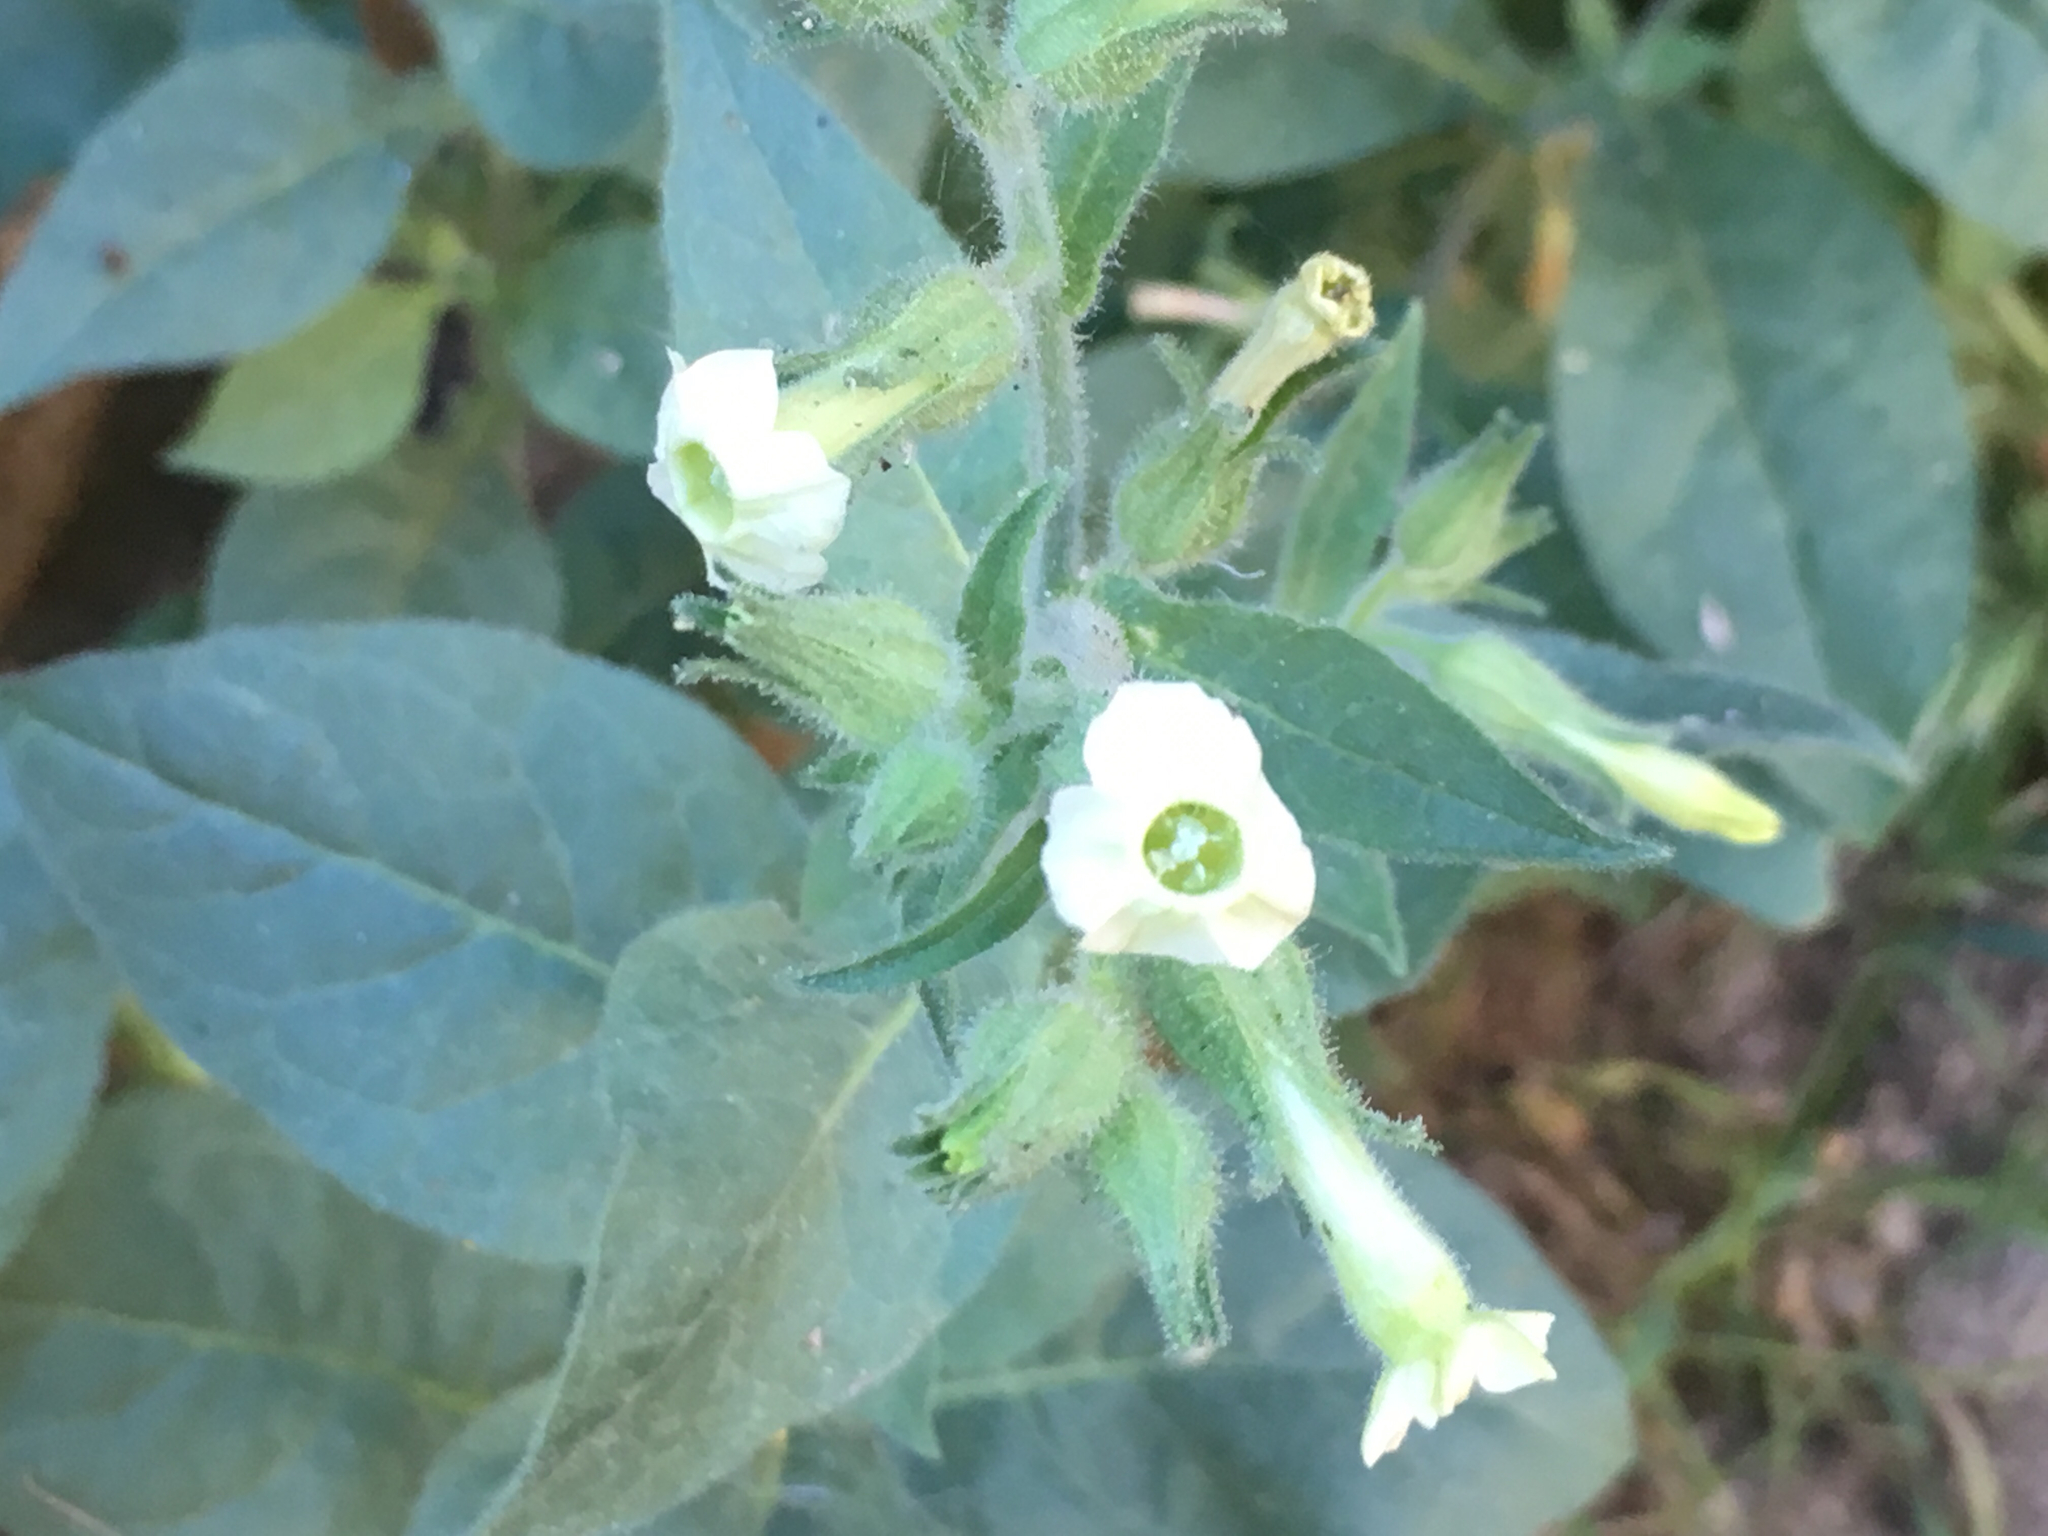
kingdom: Plantae
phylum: Tracheophyta
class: Magnoliopsida
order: Solanales
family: Solanaceae
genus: Nicotiana
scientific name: Nicotiana obtusifolia
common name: Desert tobacco
